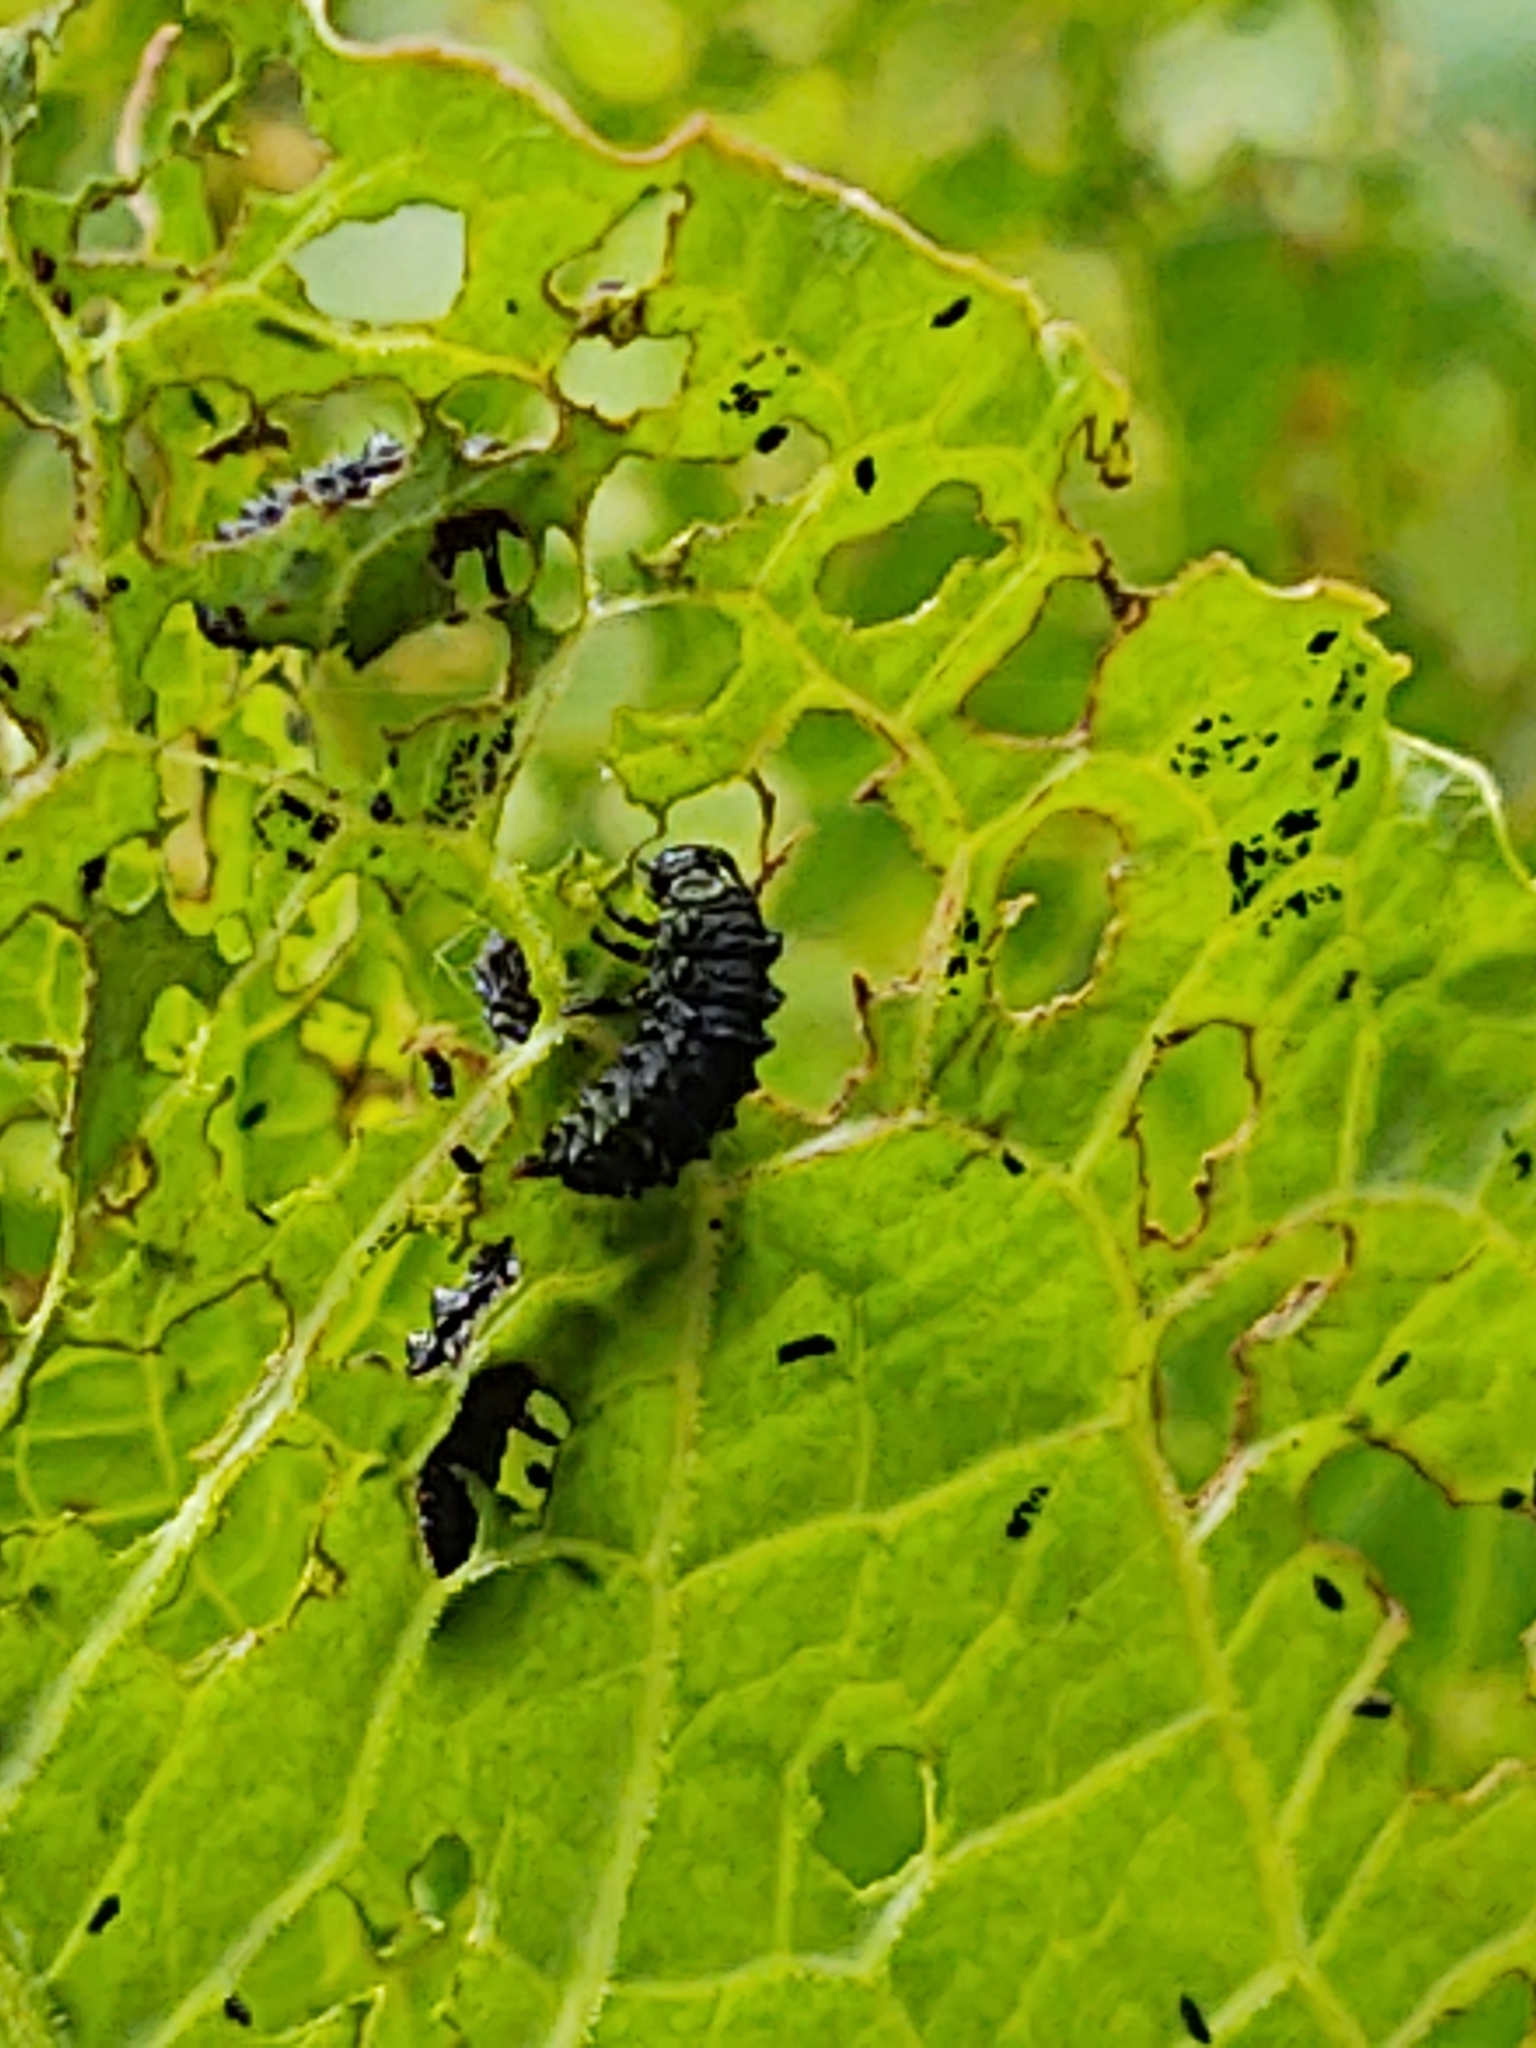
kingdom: Animalia
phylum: Arthropoda
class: Insecta
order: Coleoptera
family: Chrysomelidae
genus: Gastrophysa
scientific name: Gastrophysa viridula
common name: Green dock beetle
